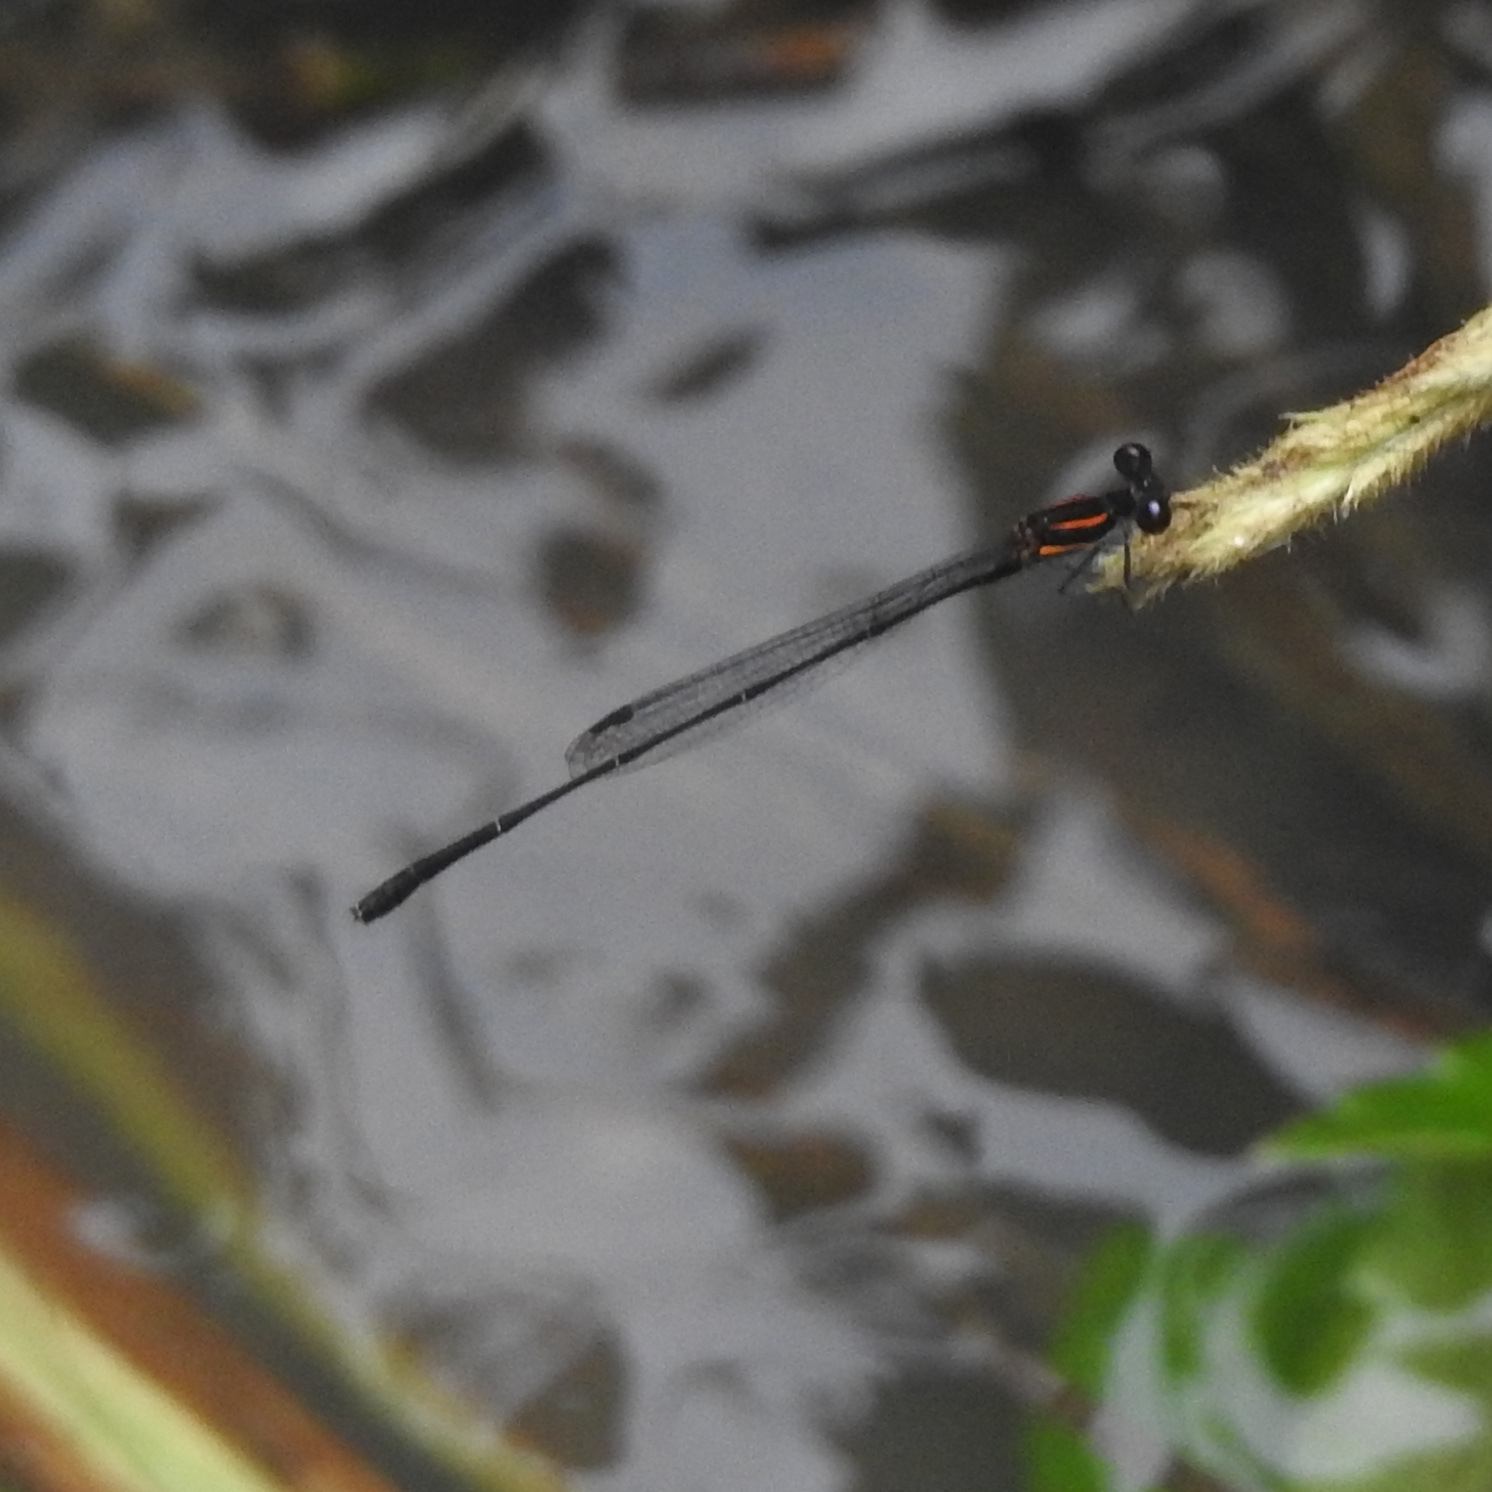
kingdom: Animalia
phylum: Arthropoda
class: Insecta
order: Odonata
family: Platycnemididae
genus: Prodasineura
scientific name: Prodasineura verticalis
